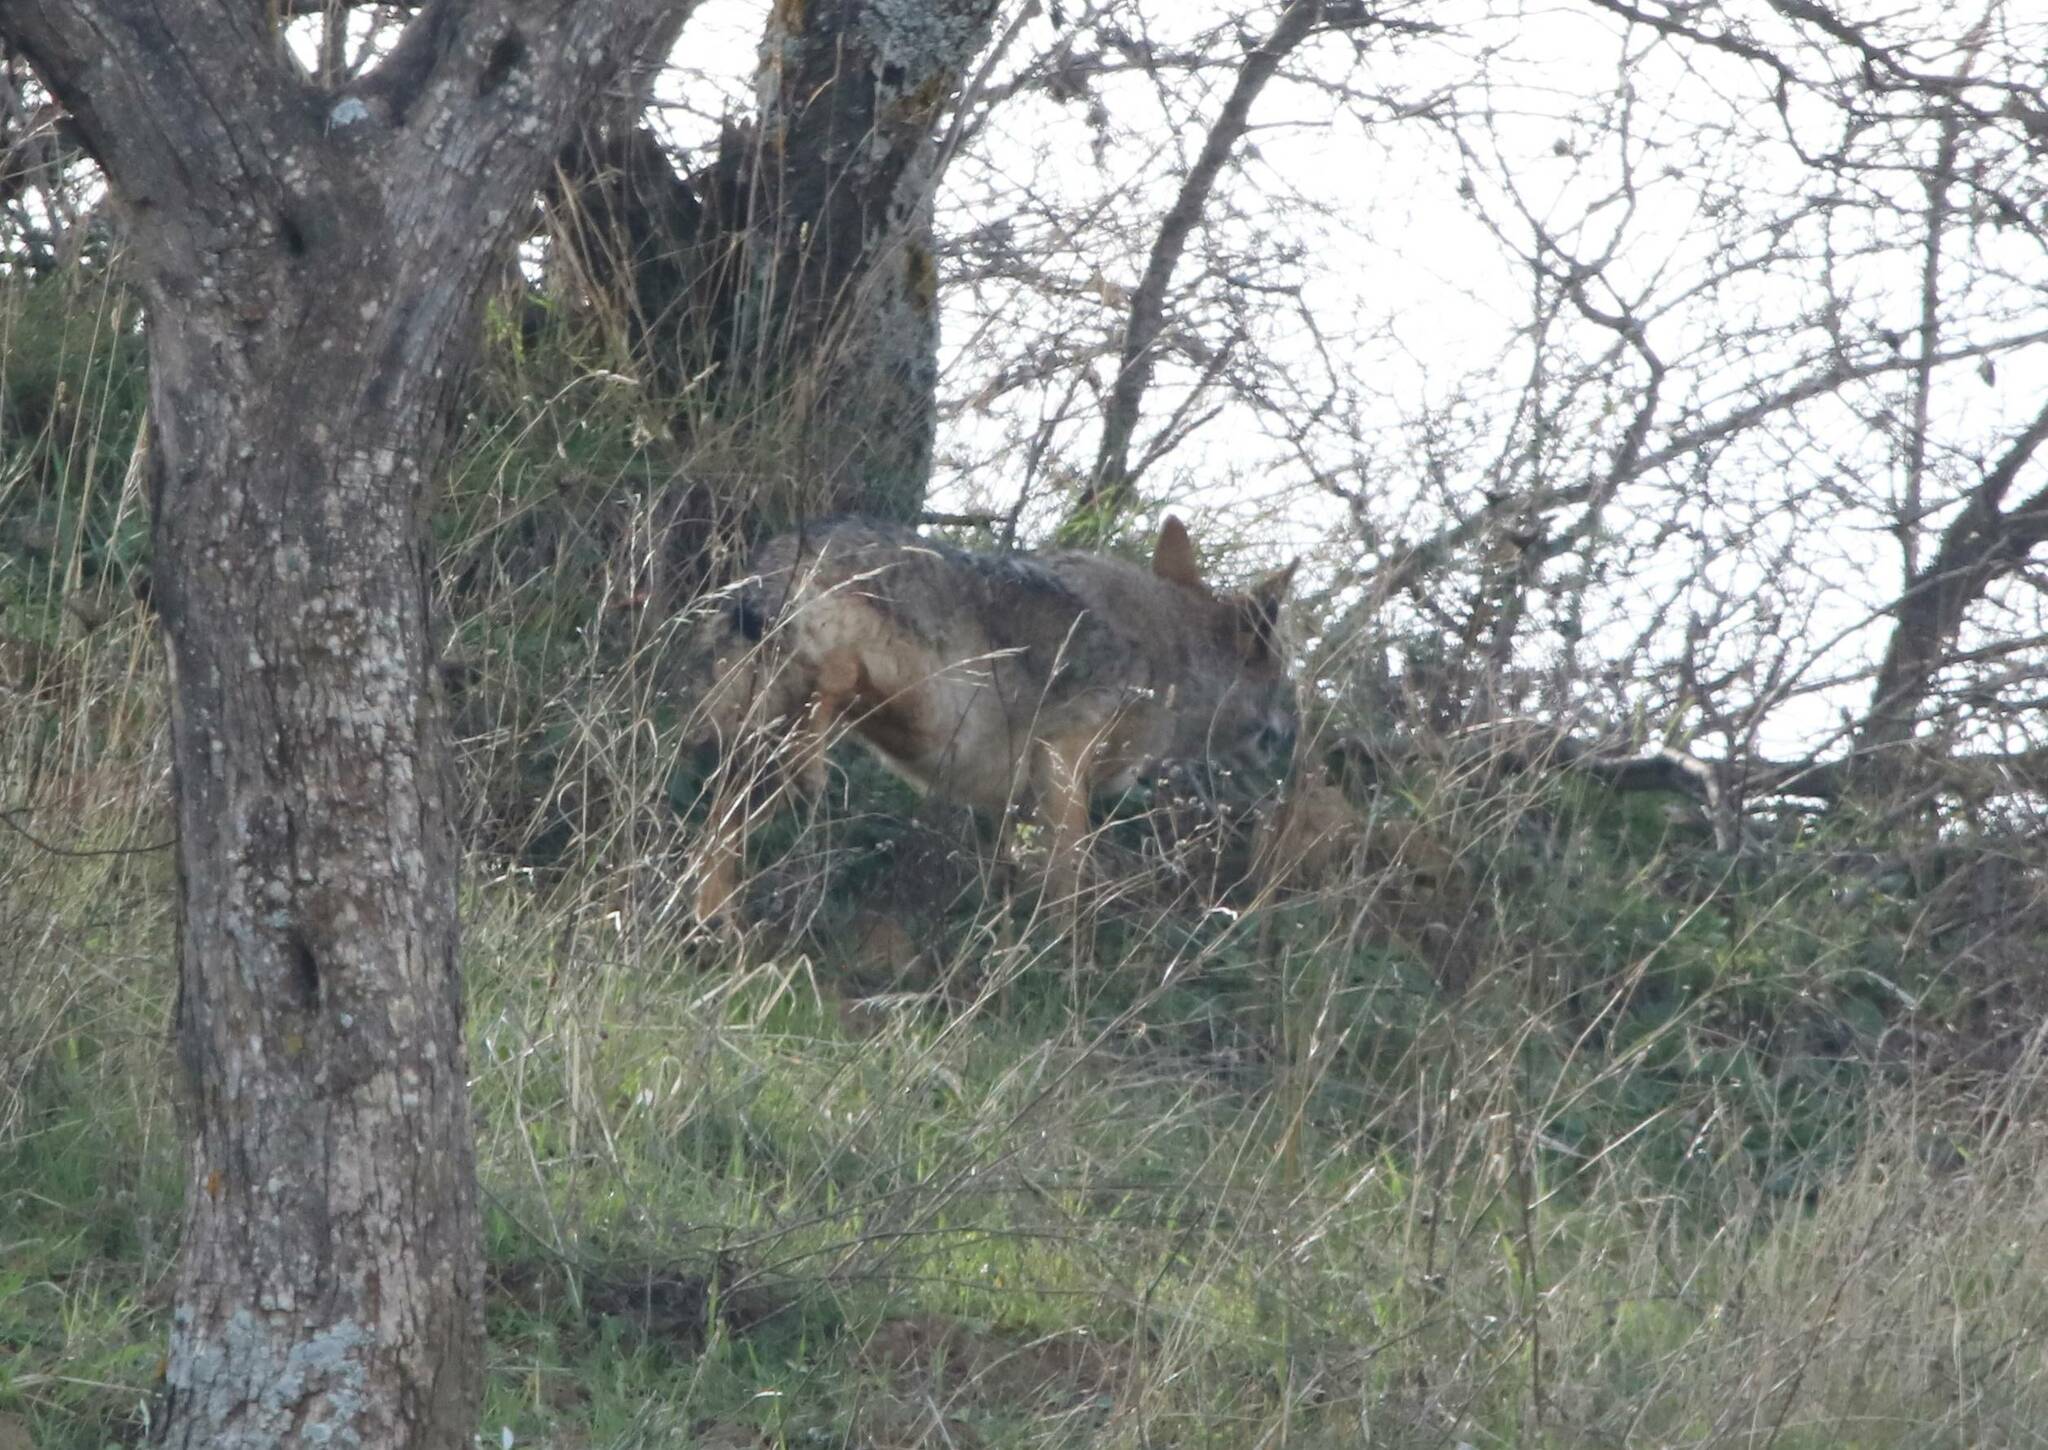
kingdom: Animalia
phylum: Chordata
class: Mammalia
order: Carnivora
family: Canidae
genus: Canis
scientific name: Canis lupaster
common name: African golden wolf
